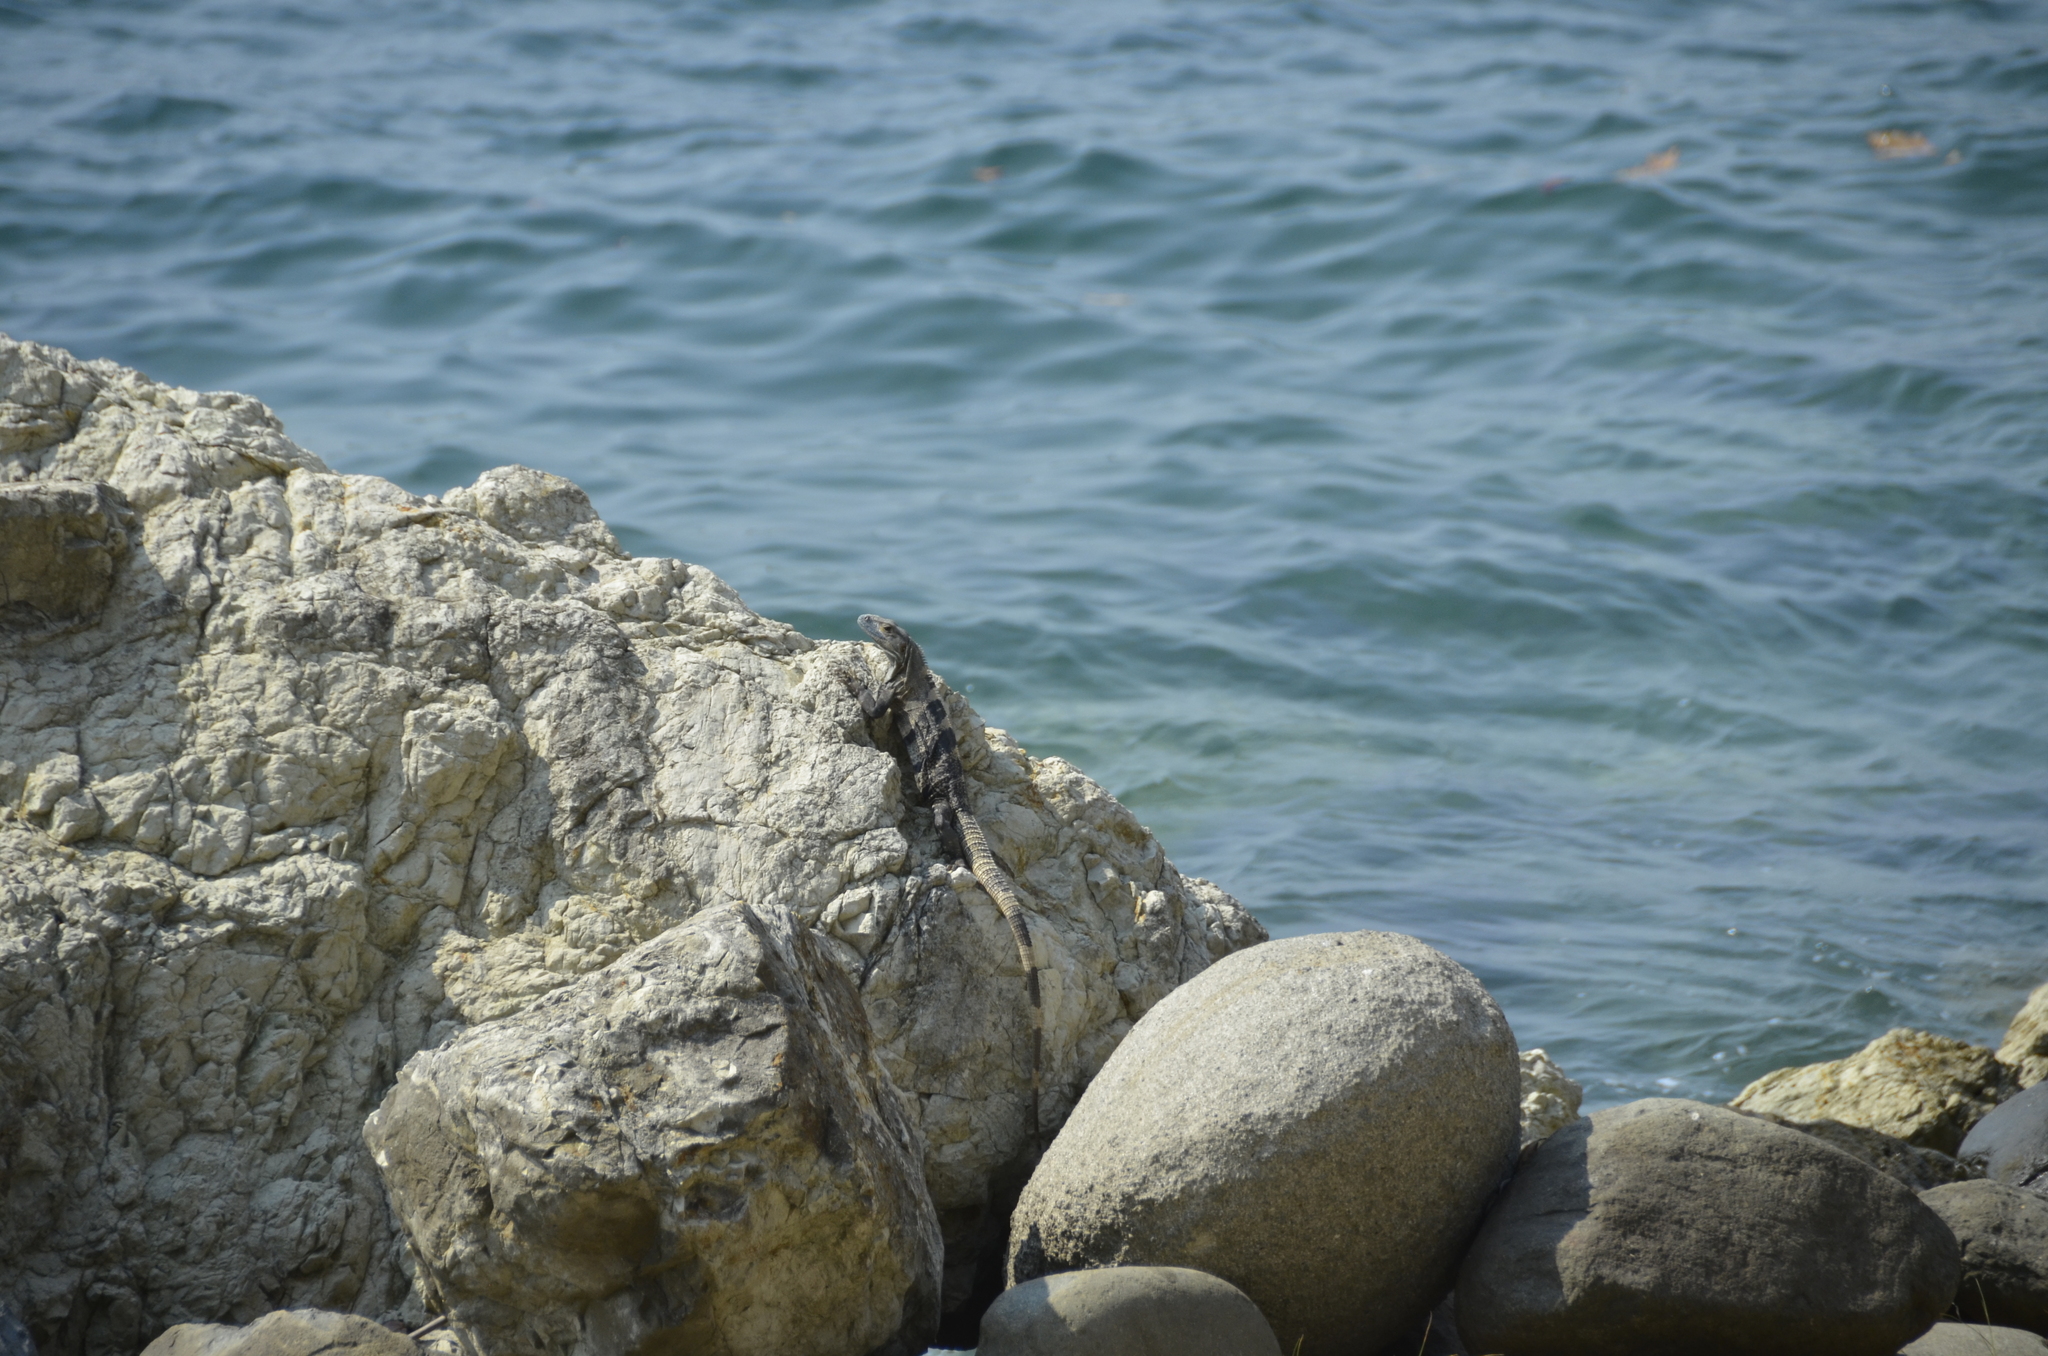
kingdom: Animalia
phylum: Chordata
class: Squamata
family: Iguanidae
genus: Ctenosaura
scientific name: Ctenosaura similis
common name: Black spiny-tailed iguana
